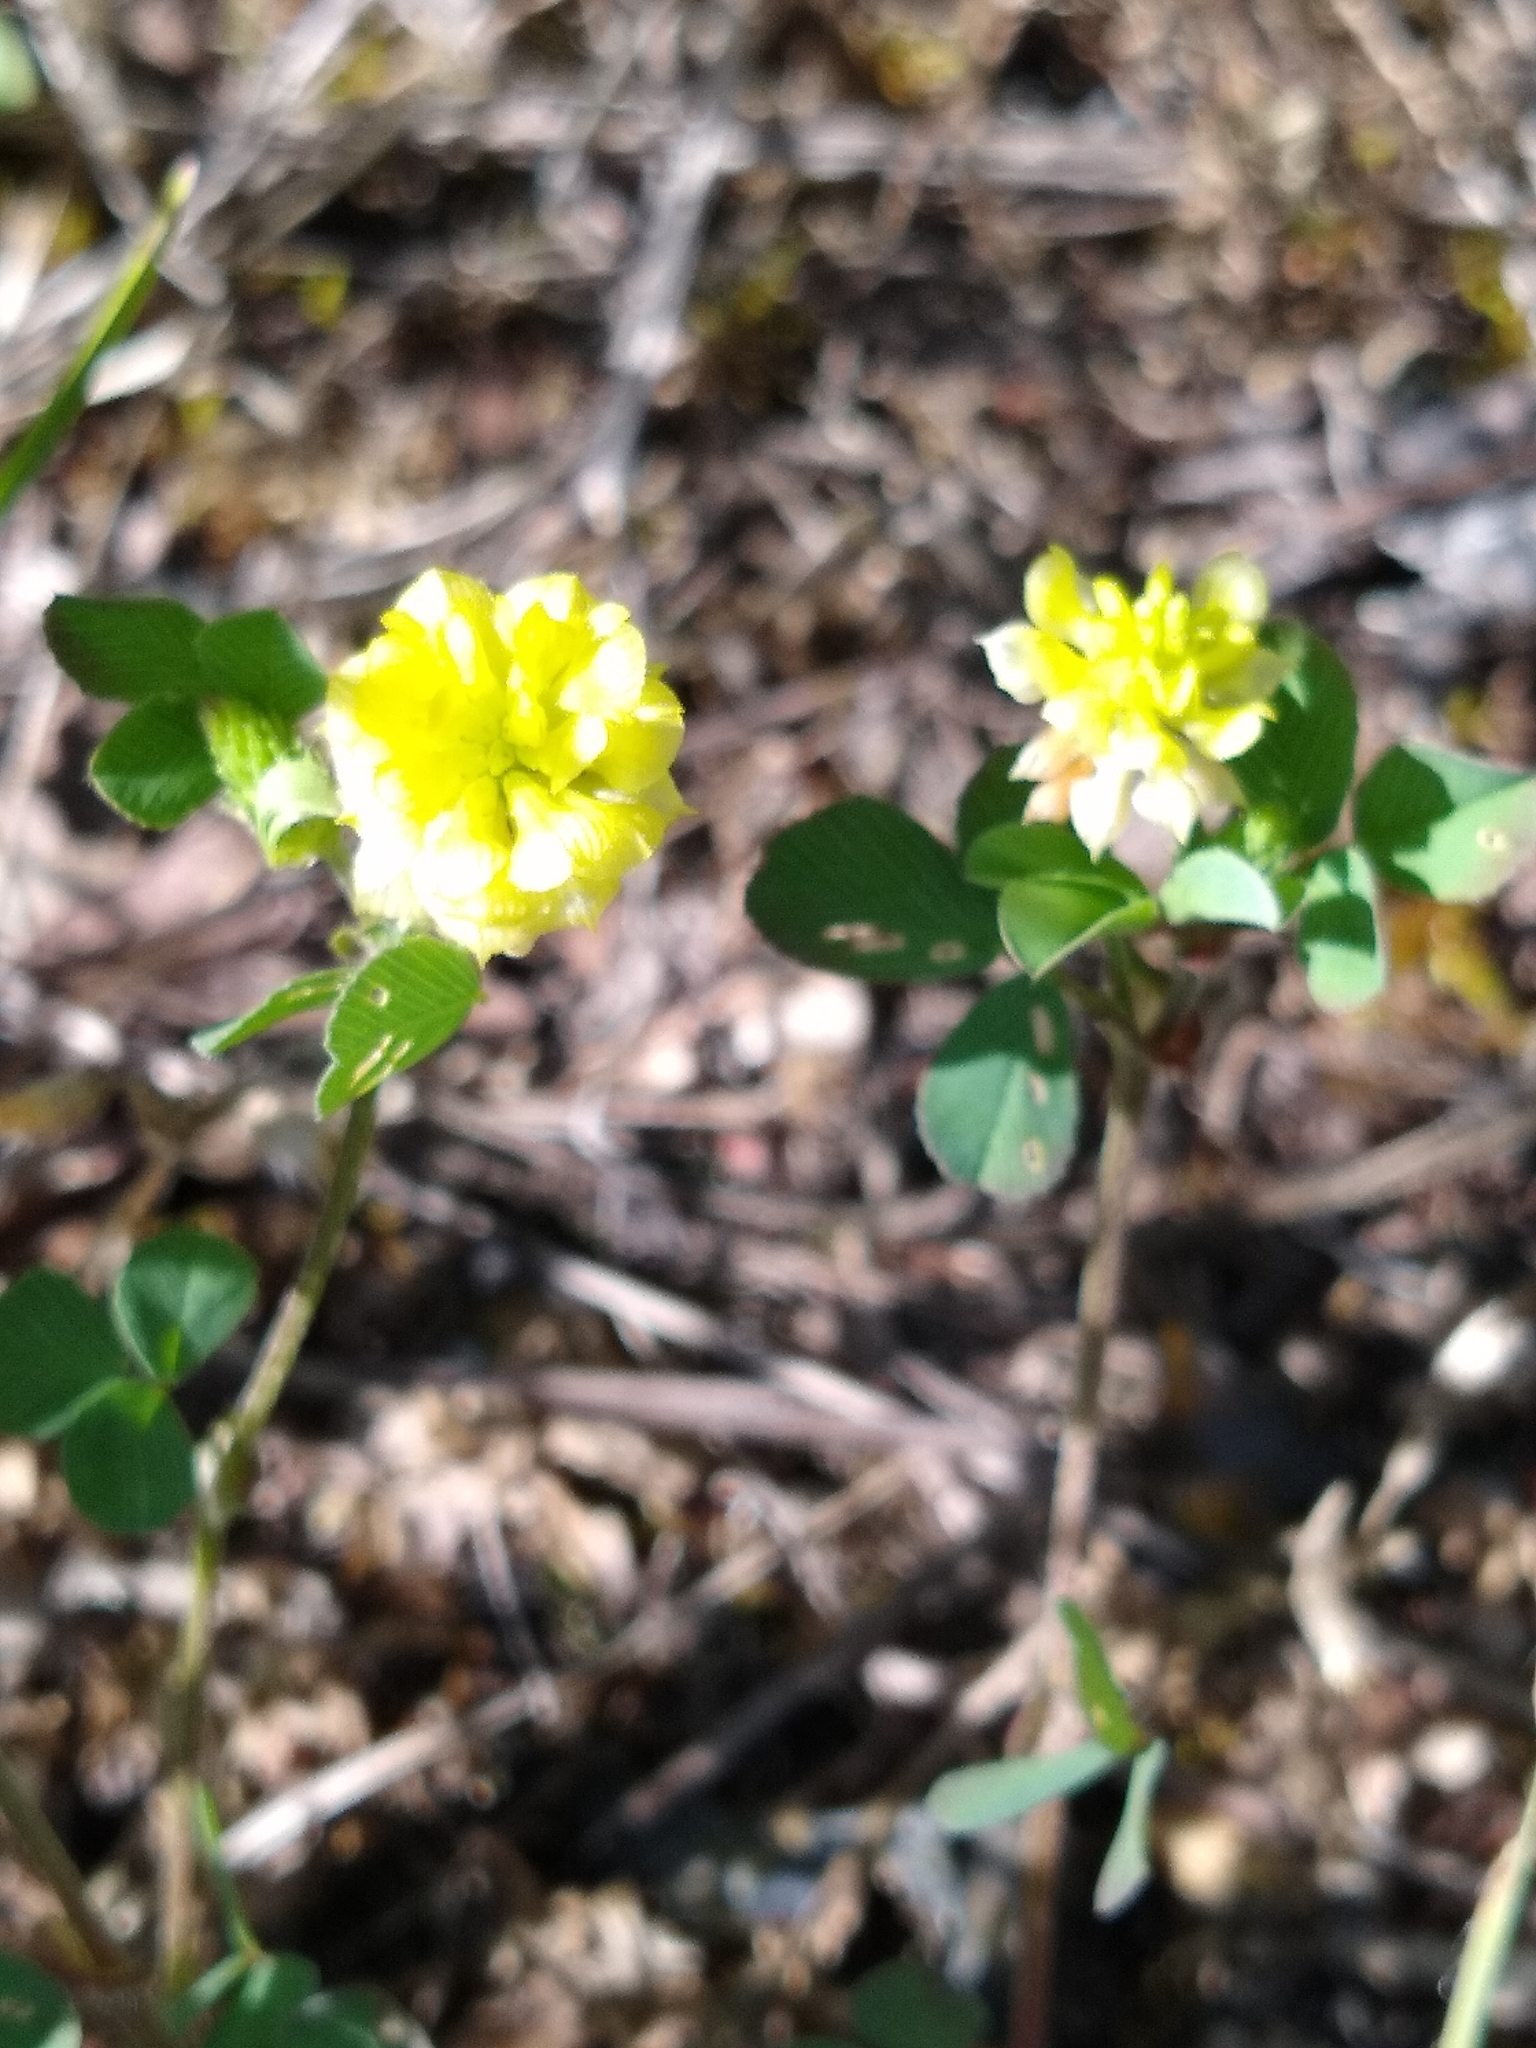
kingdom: Plantae
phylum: Tracheophyta
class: Magnoliopsida
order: Fabales
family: Fabaceae
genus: Trifolium
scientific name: Trifolium campestre
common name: Field clover
